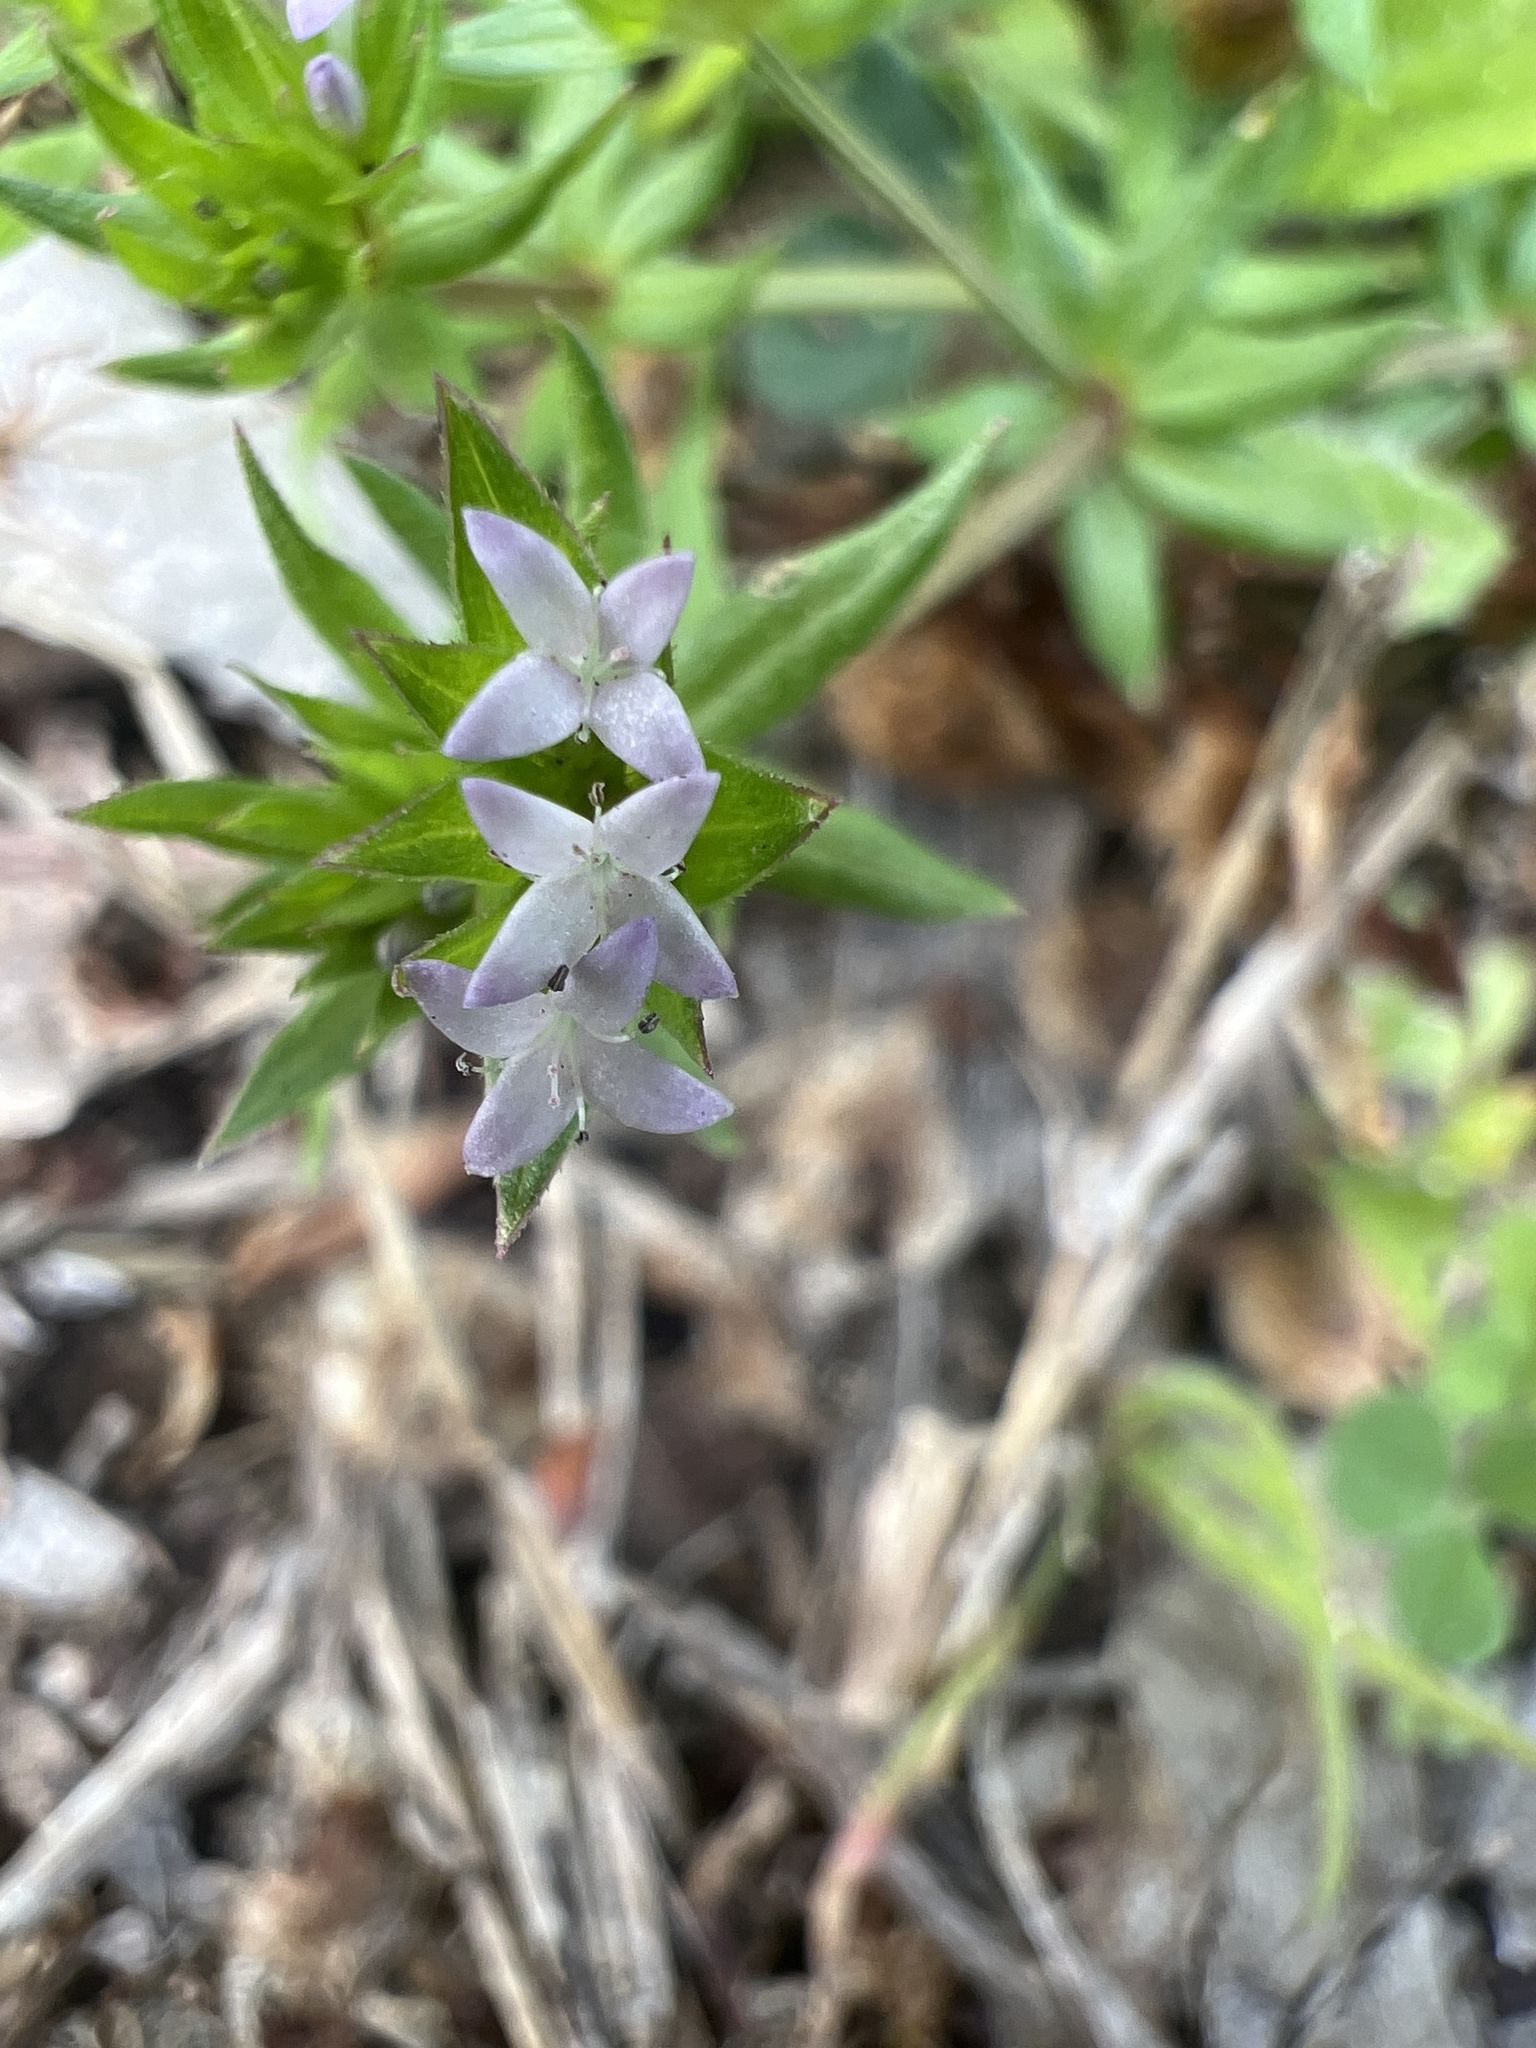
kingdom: Plantae
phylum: Tracheophyta
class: Magnoliopsida
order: Gentianales
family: Rubiaceae
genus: Sherardia
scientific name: Sherardia arvensis
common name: Field madder
